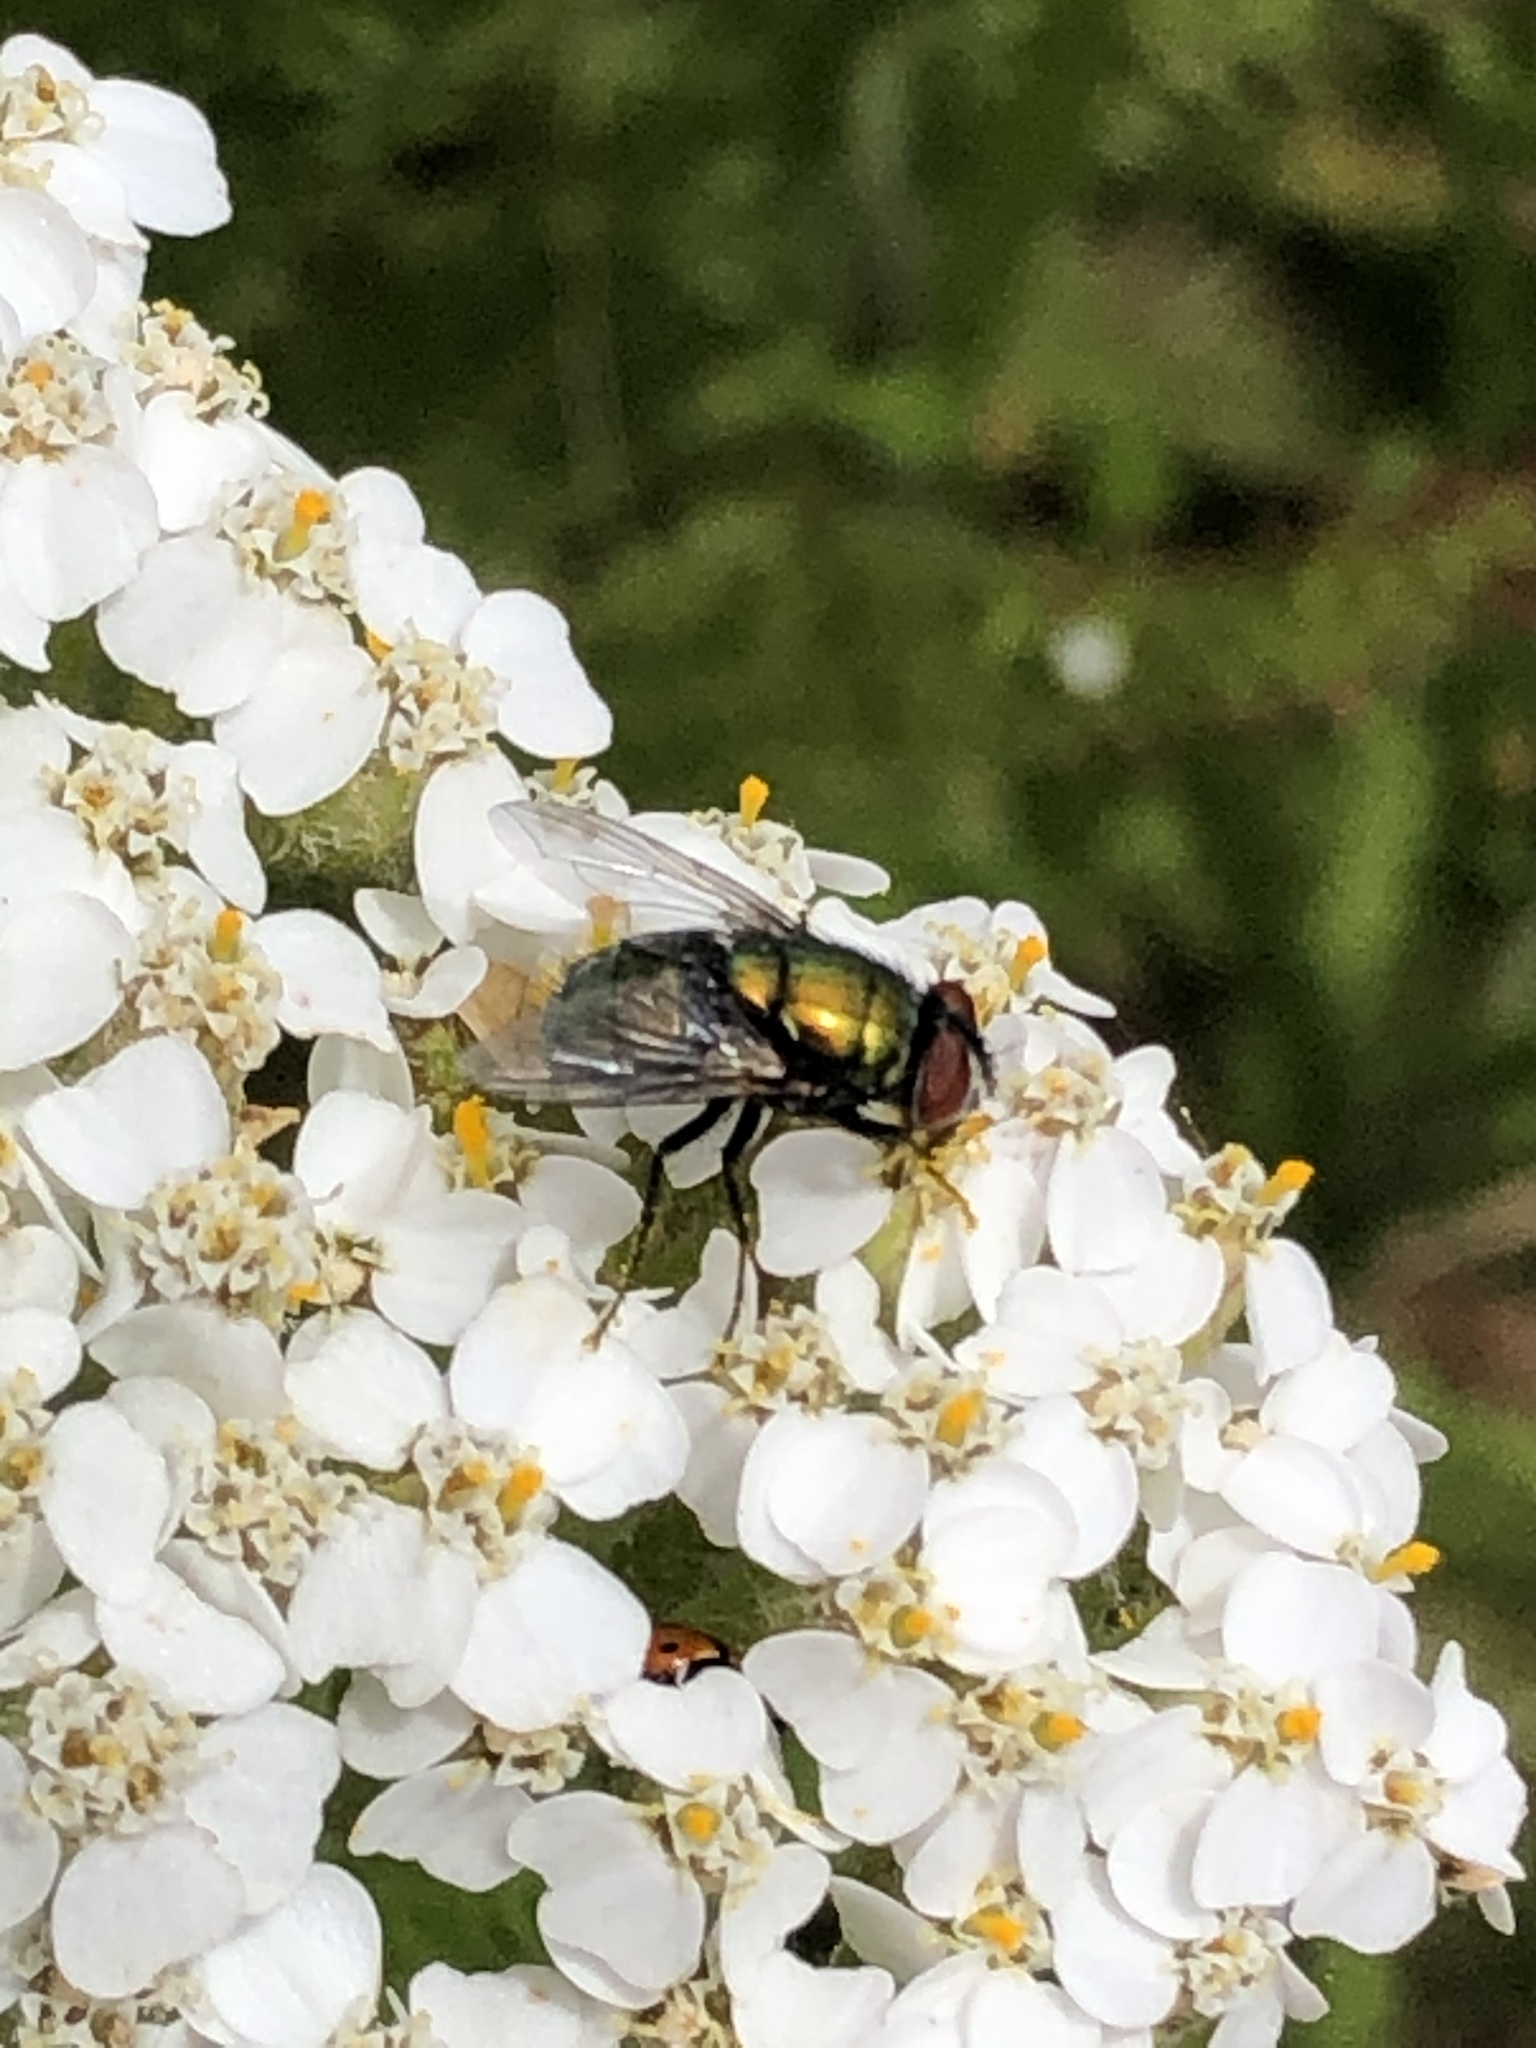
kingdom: Animalia
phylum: Arthropoda
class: Insecta
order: Diptera
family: Calliphoridae
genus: Lucilia
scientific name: Lucilia sericata
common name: Blow fly
